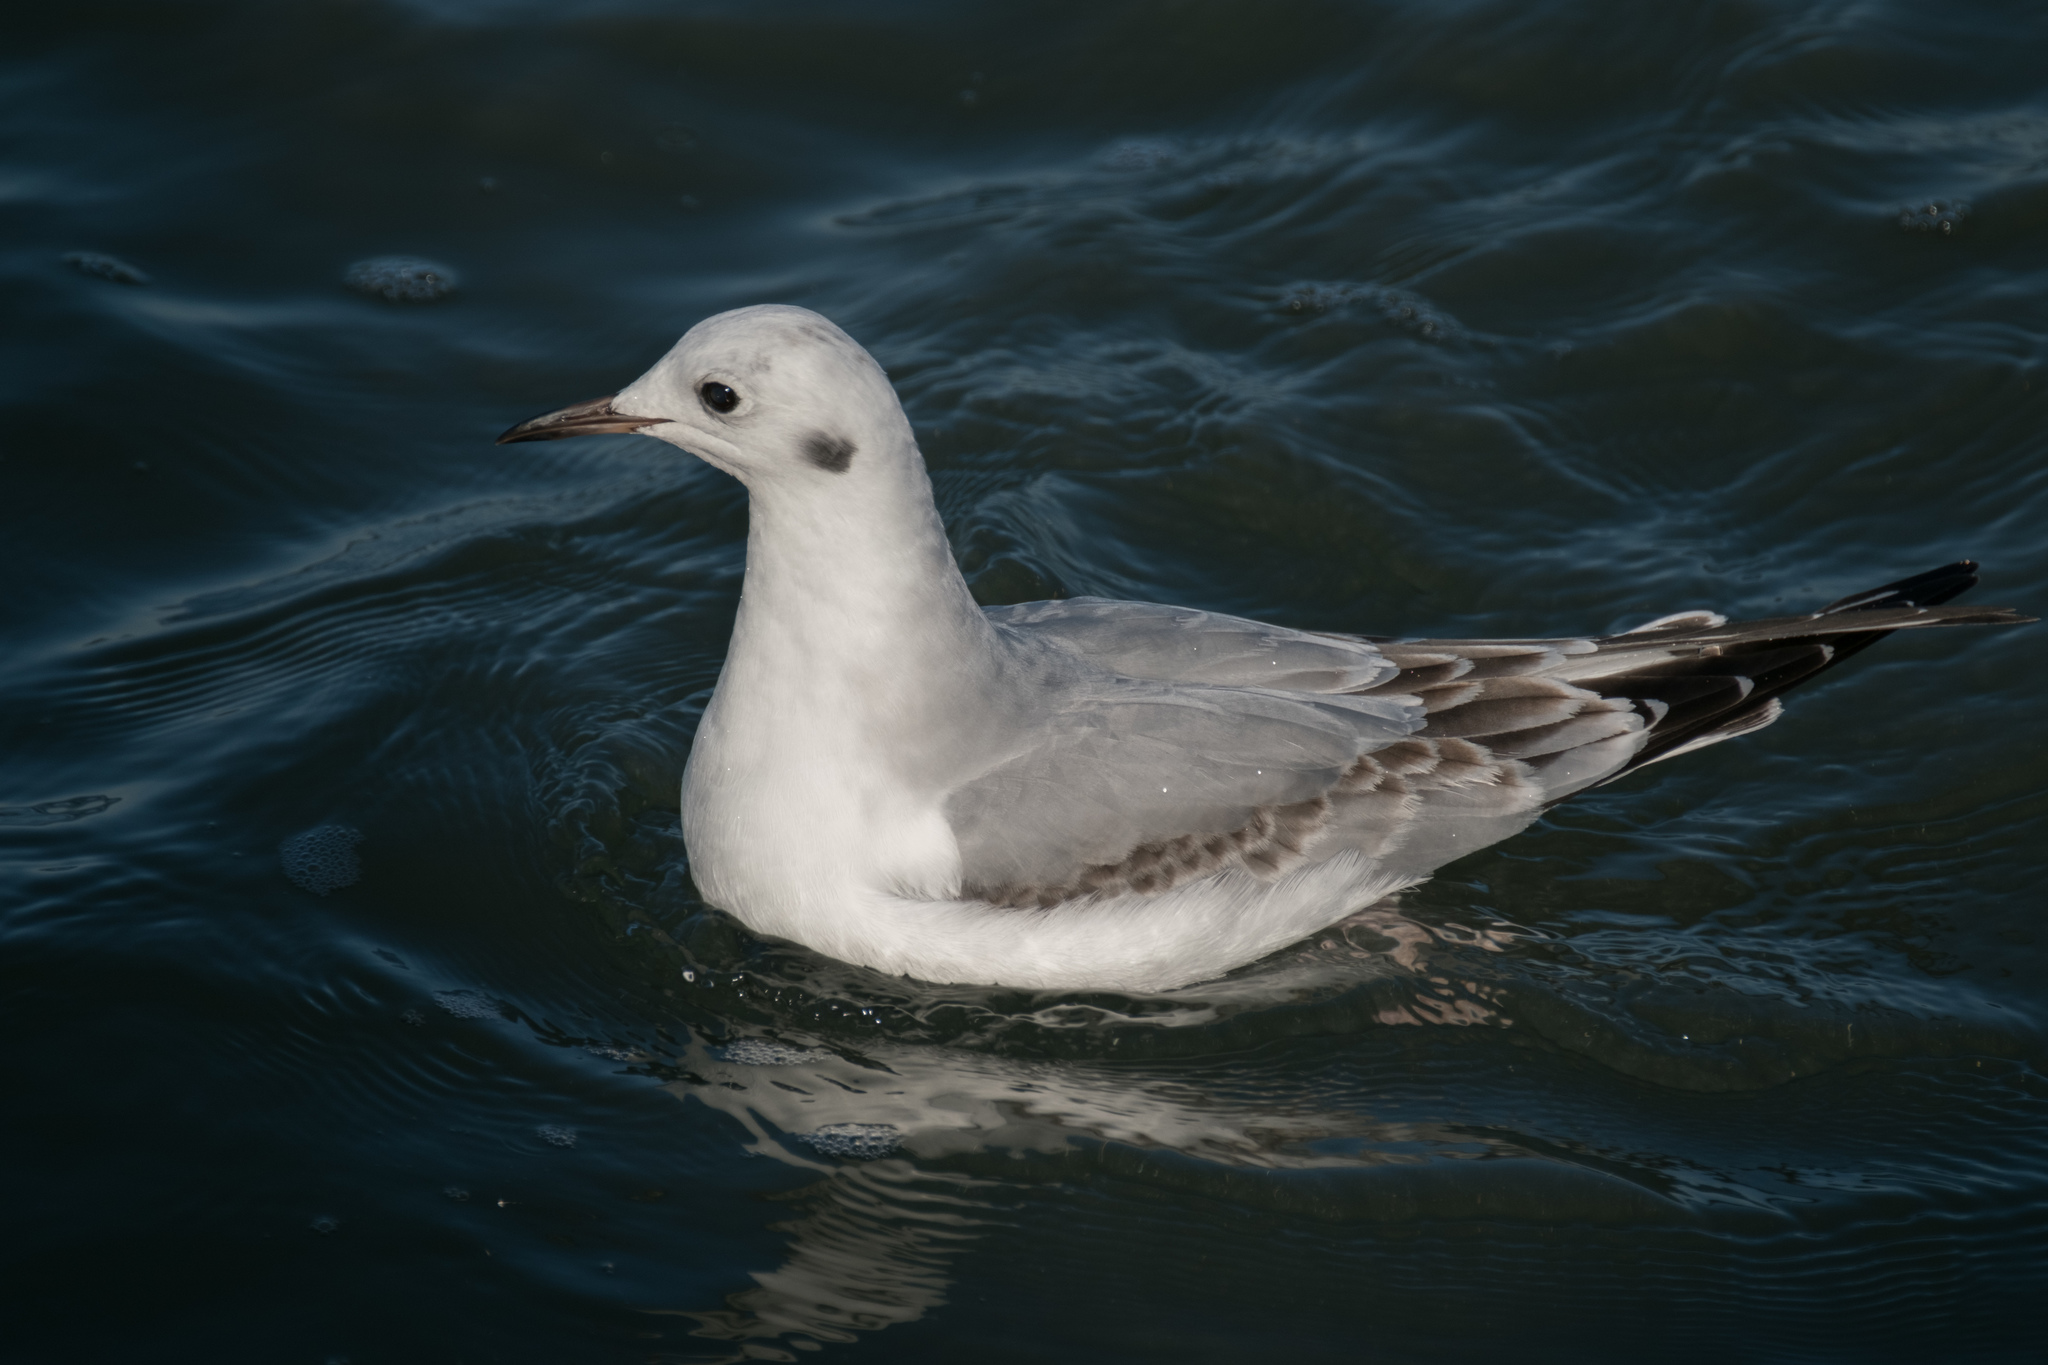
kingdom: Animalia
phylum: Chordata
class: Aves
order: Charadriiformes
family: Laridae
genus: Chroicocephalus
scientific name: Chroicocephalus philadelphia
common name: Bonaparte's gull
